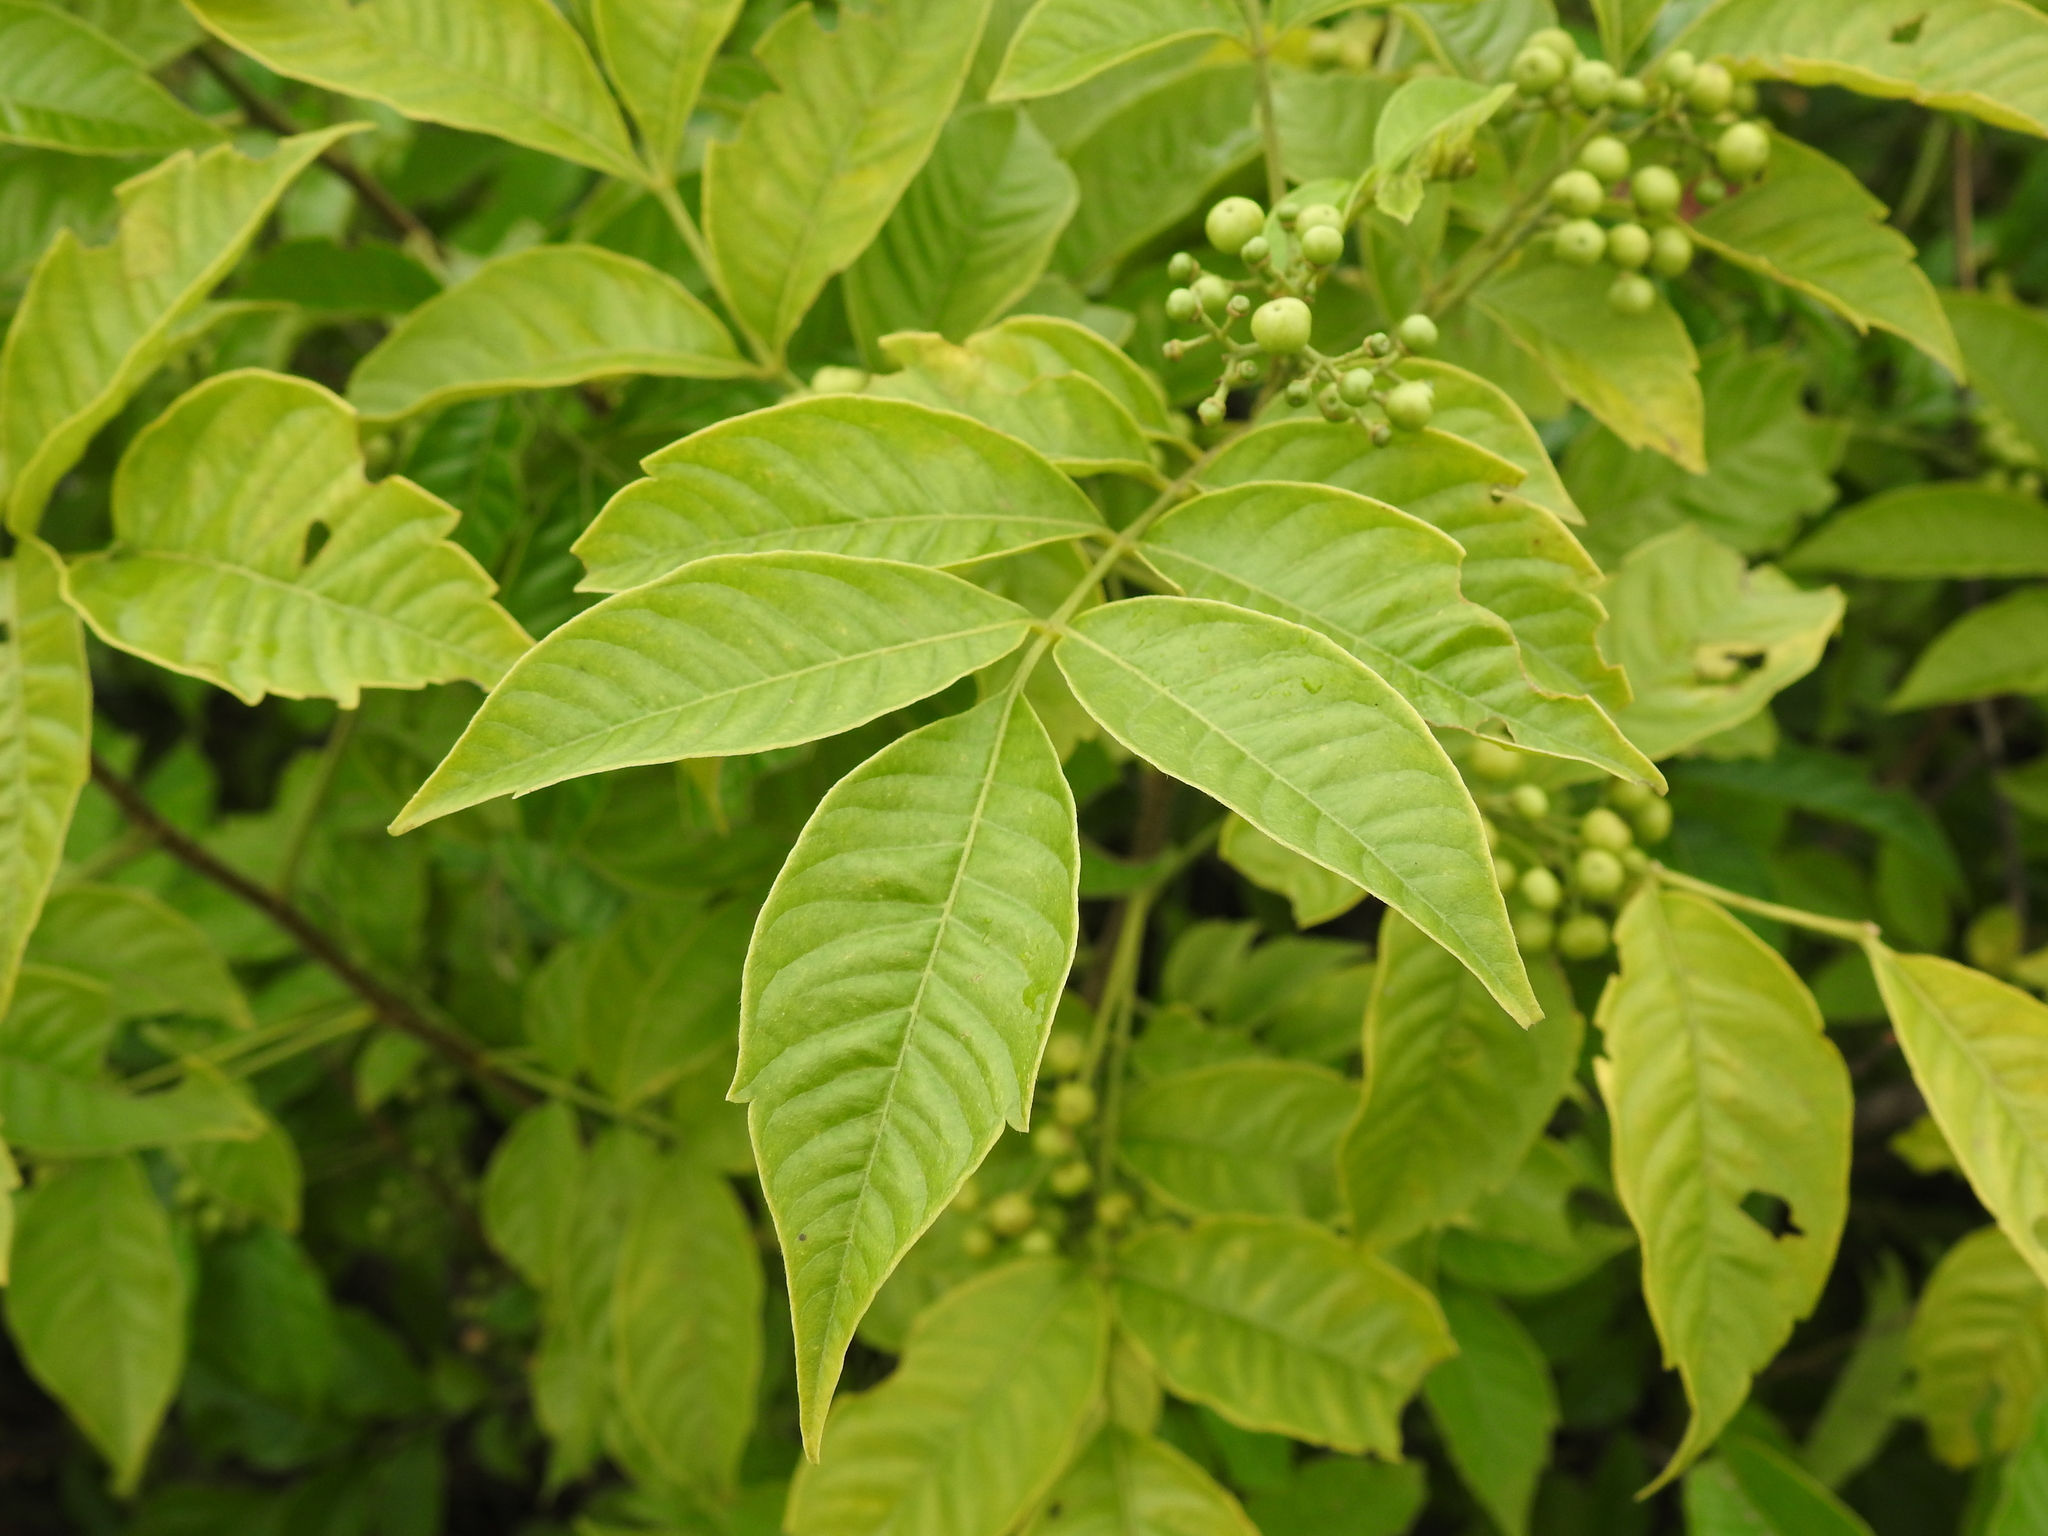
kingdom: Plantae
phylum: Tracheophyta
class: Magnoliopsida
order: Sapindales
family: Meliaceae
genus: Cipadessa
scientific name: Cipadessa baccifera
